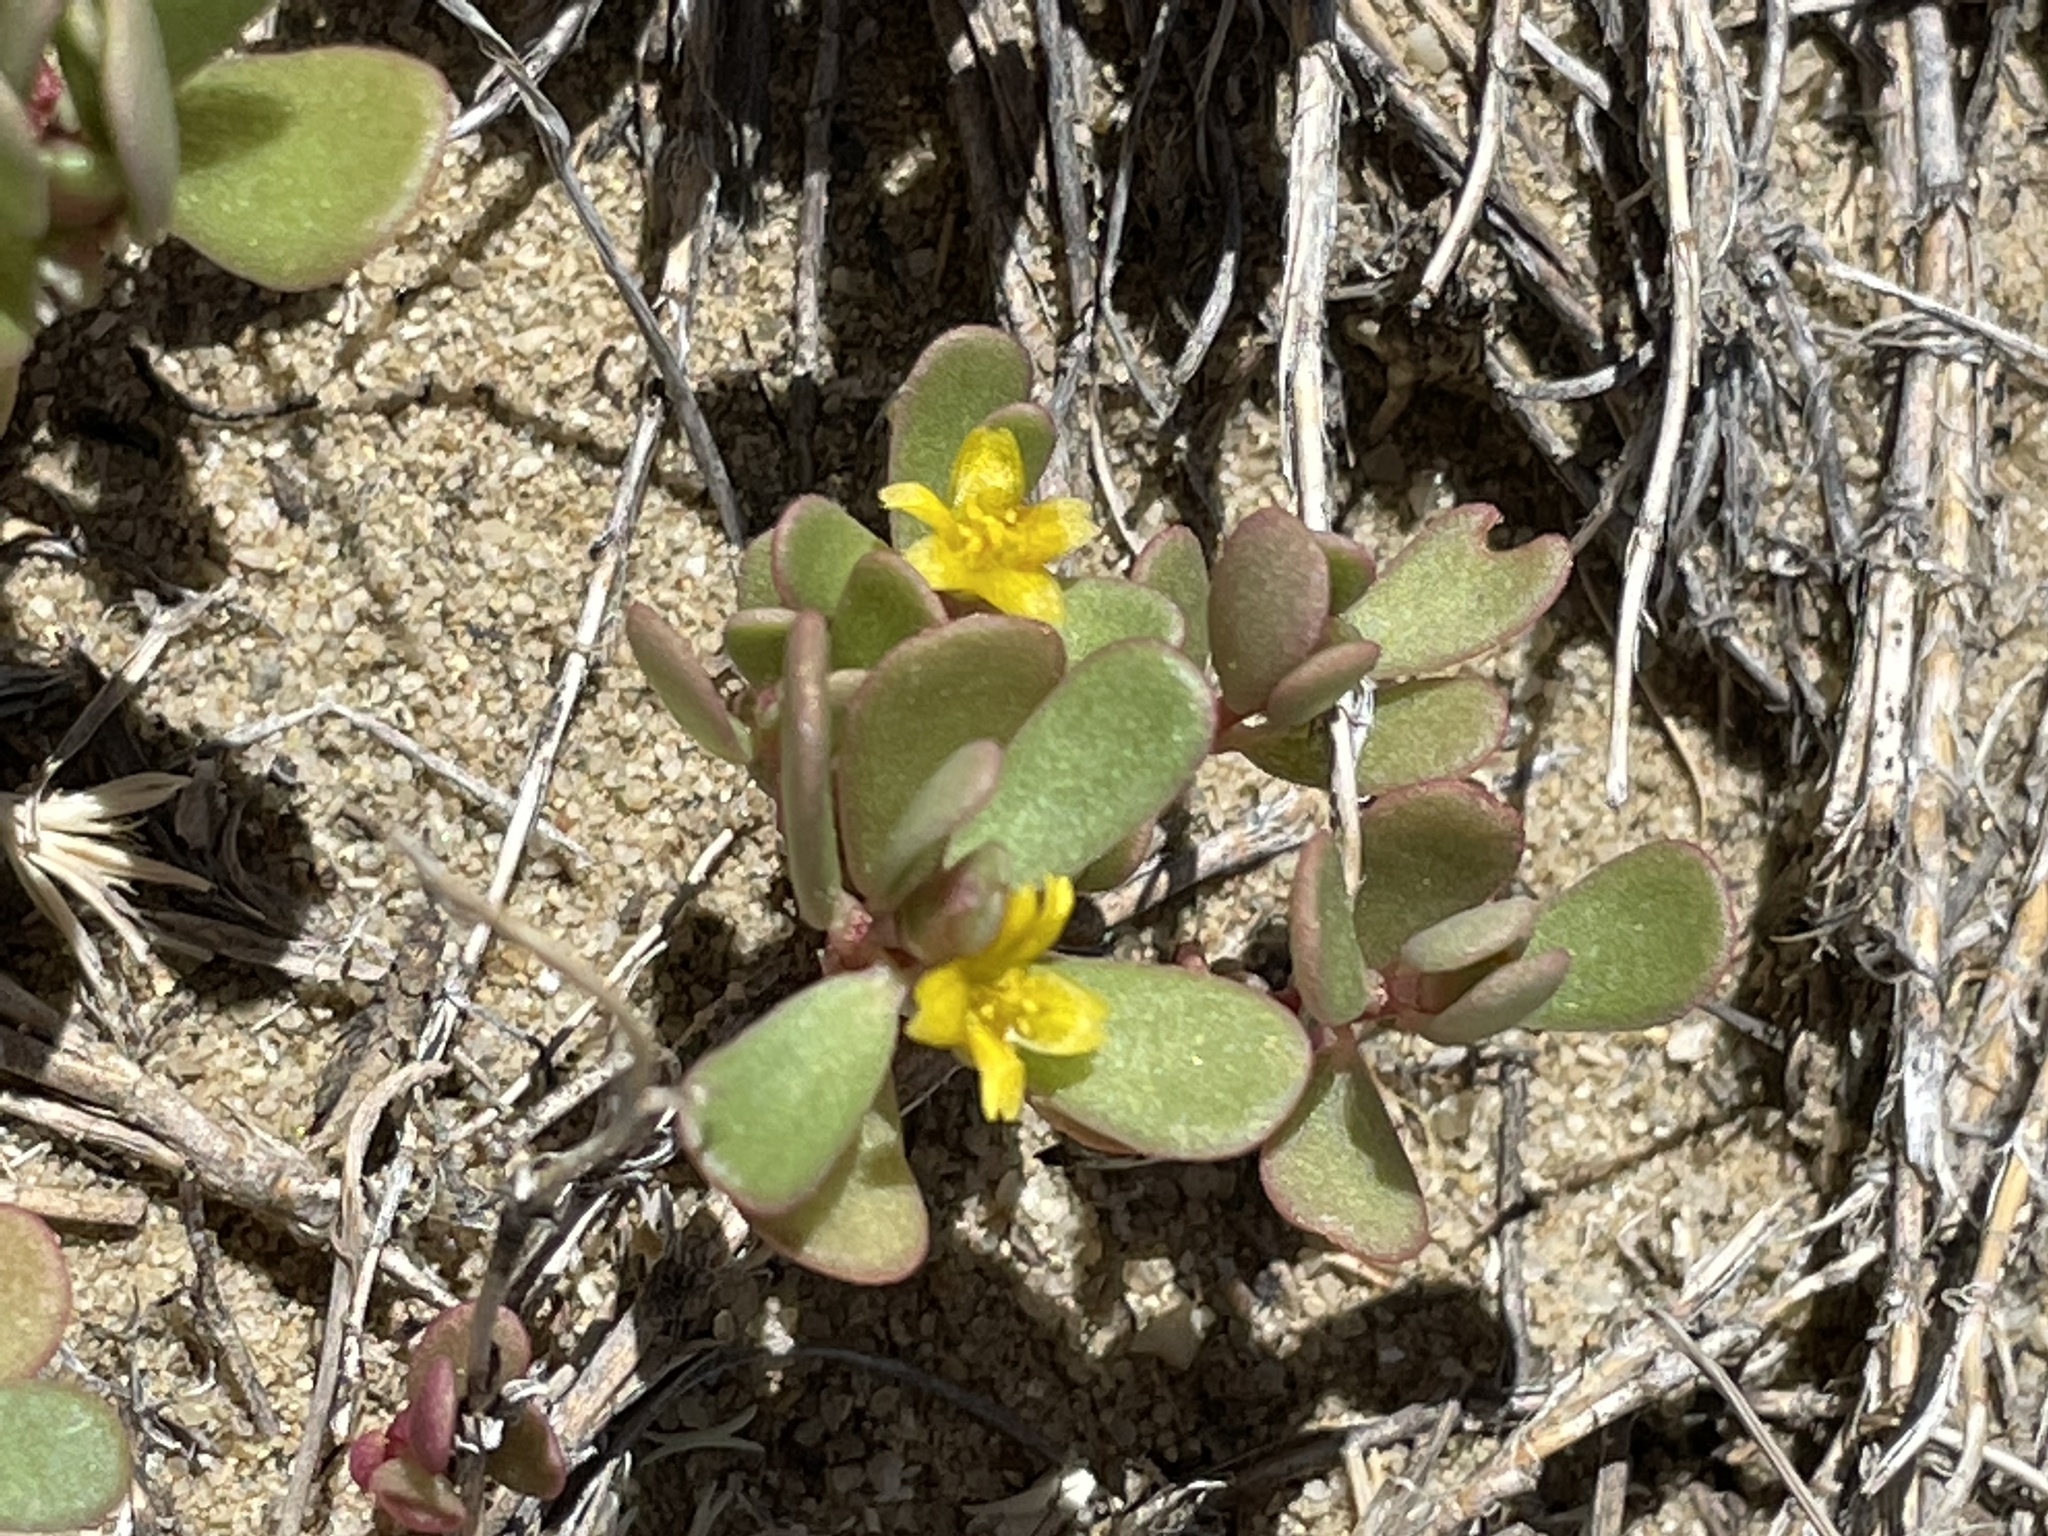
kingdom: Plantae
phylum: Tracheophyta
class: Magnoliopsida
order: Caryophyllales
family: Portulacaceae
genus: Portulaca
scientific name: Portulaca oleracea
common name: Common purslane
